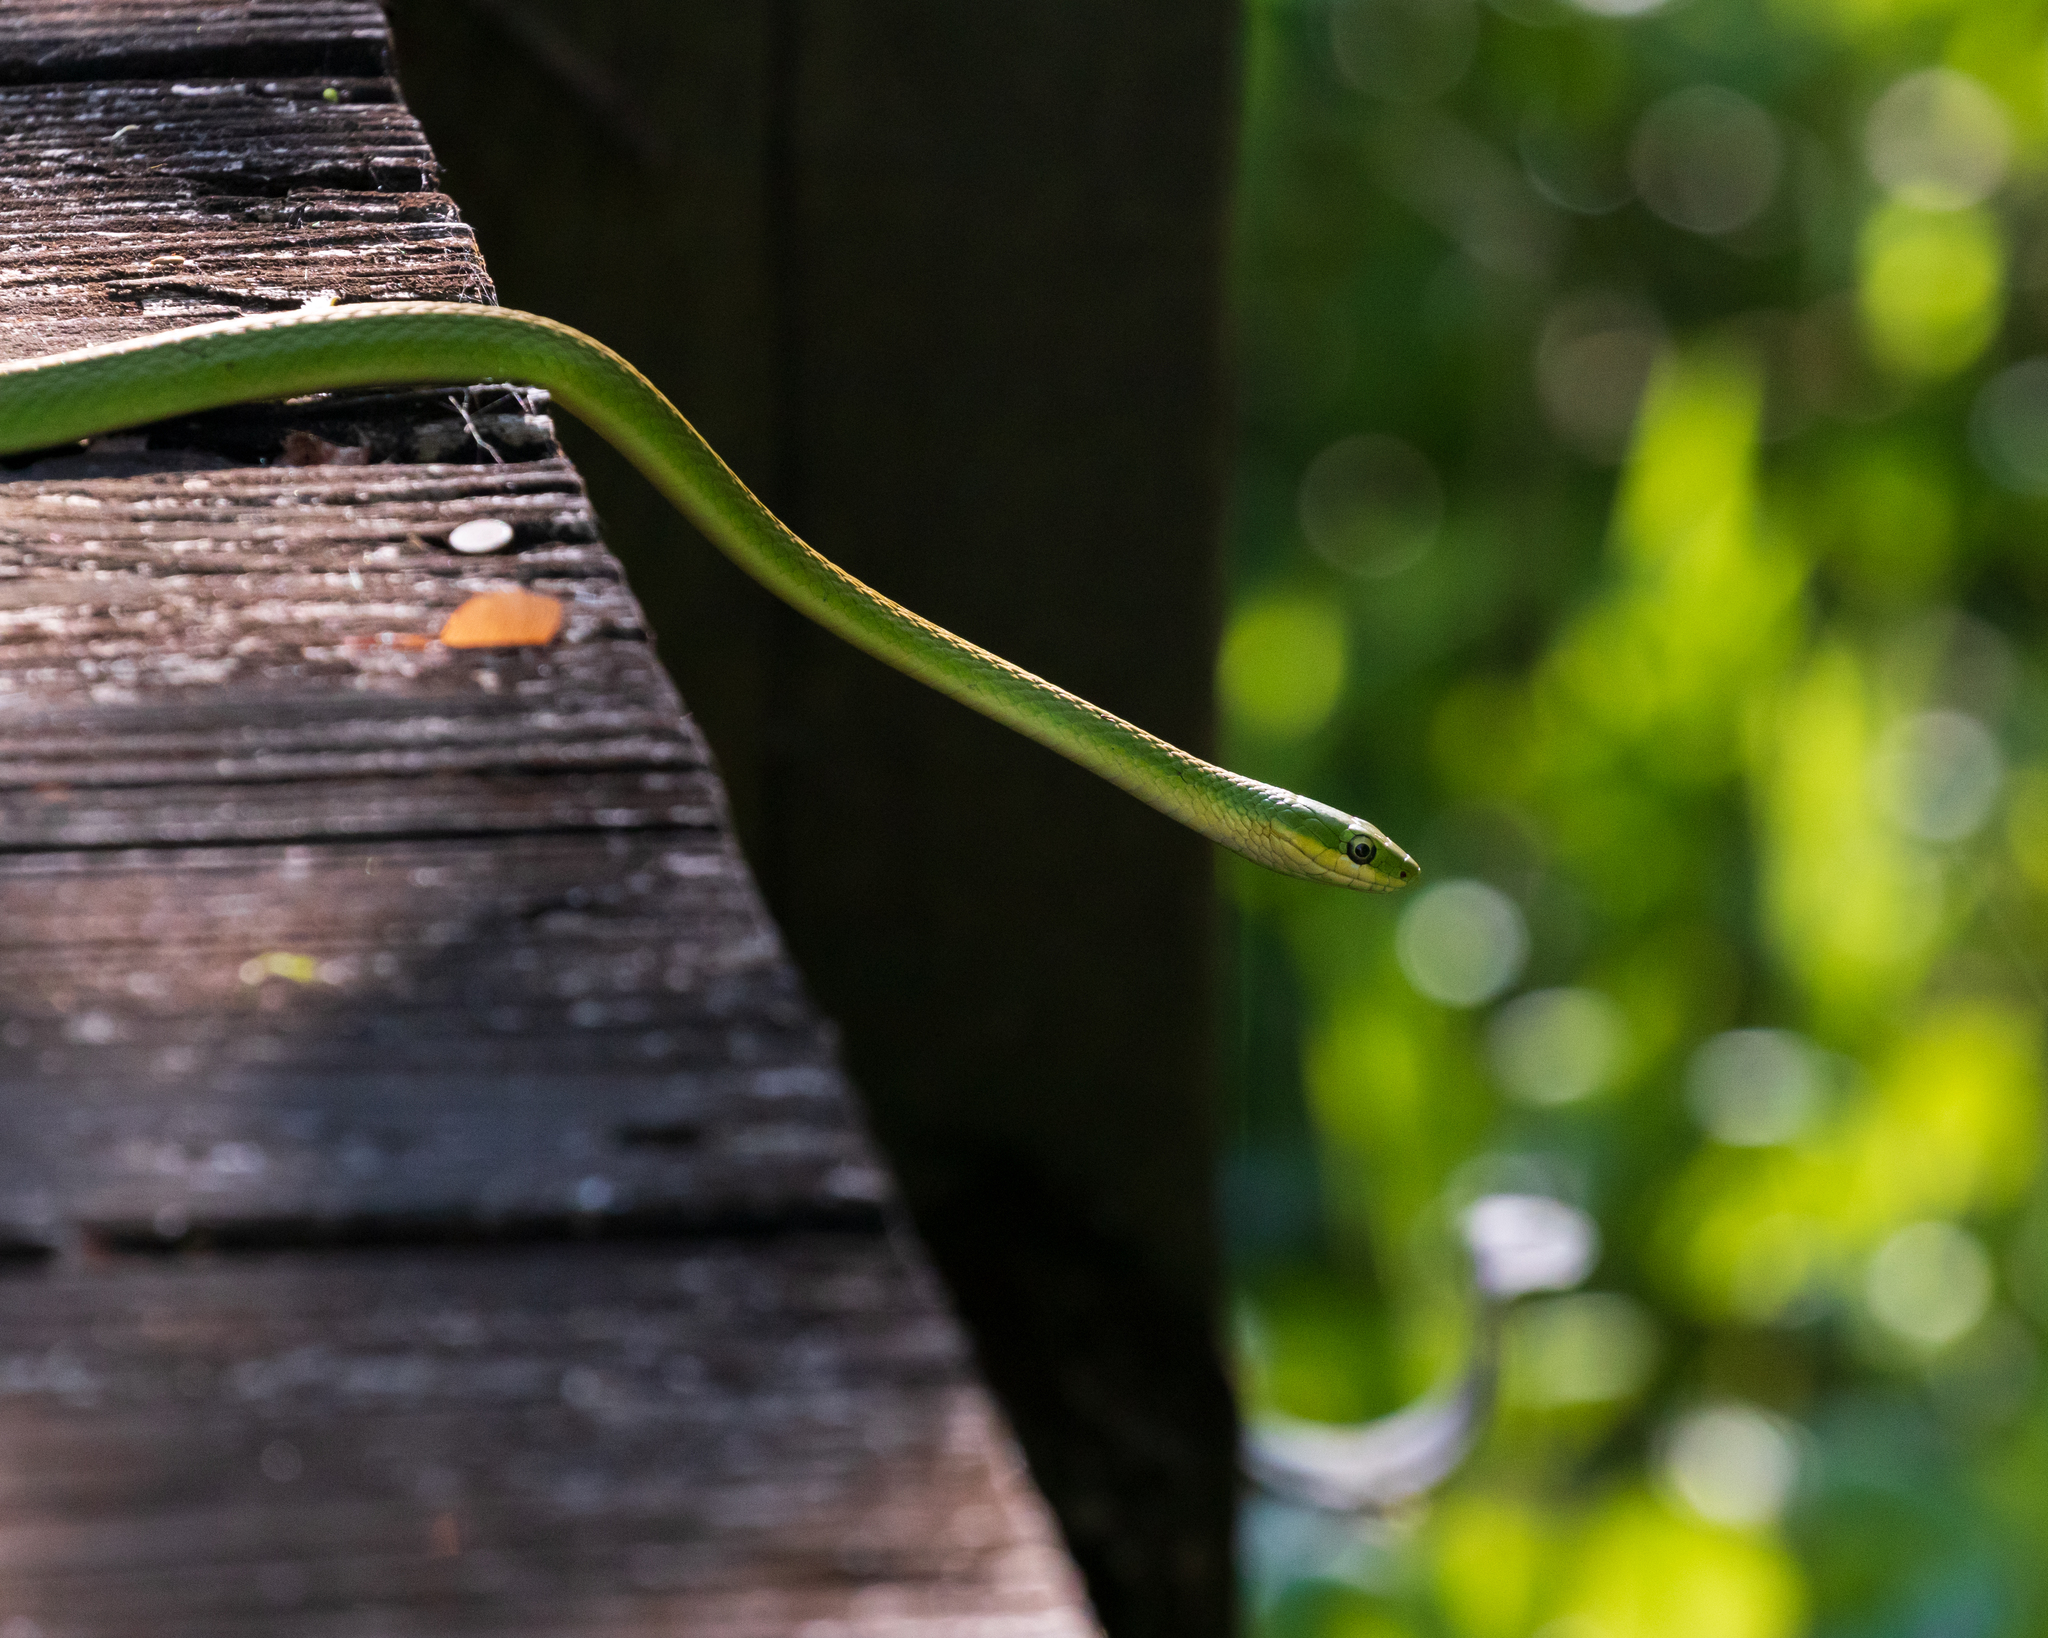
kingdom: Animalia
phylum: Chordata
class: Squamata
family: Colubridae
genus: Opheodrys
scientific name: Opheodrys aestivus
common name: Rough greensnake
